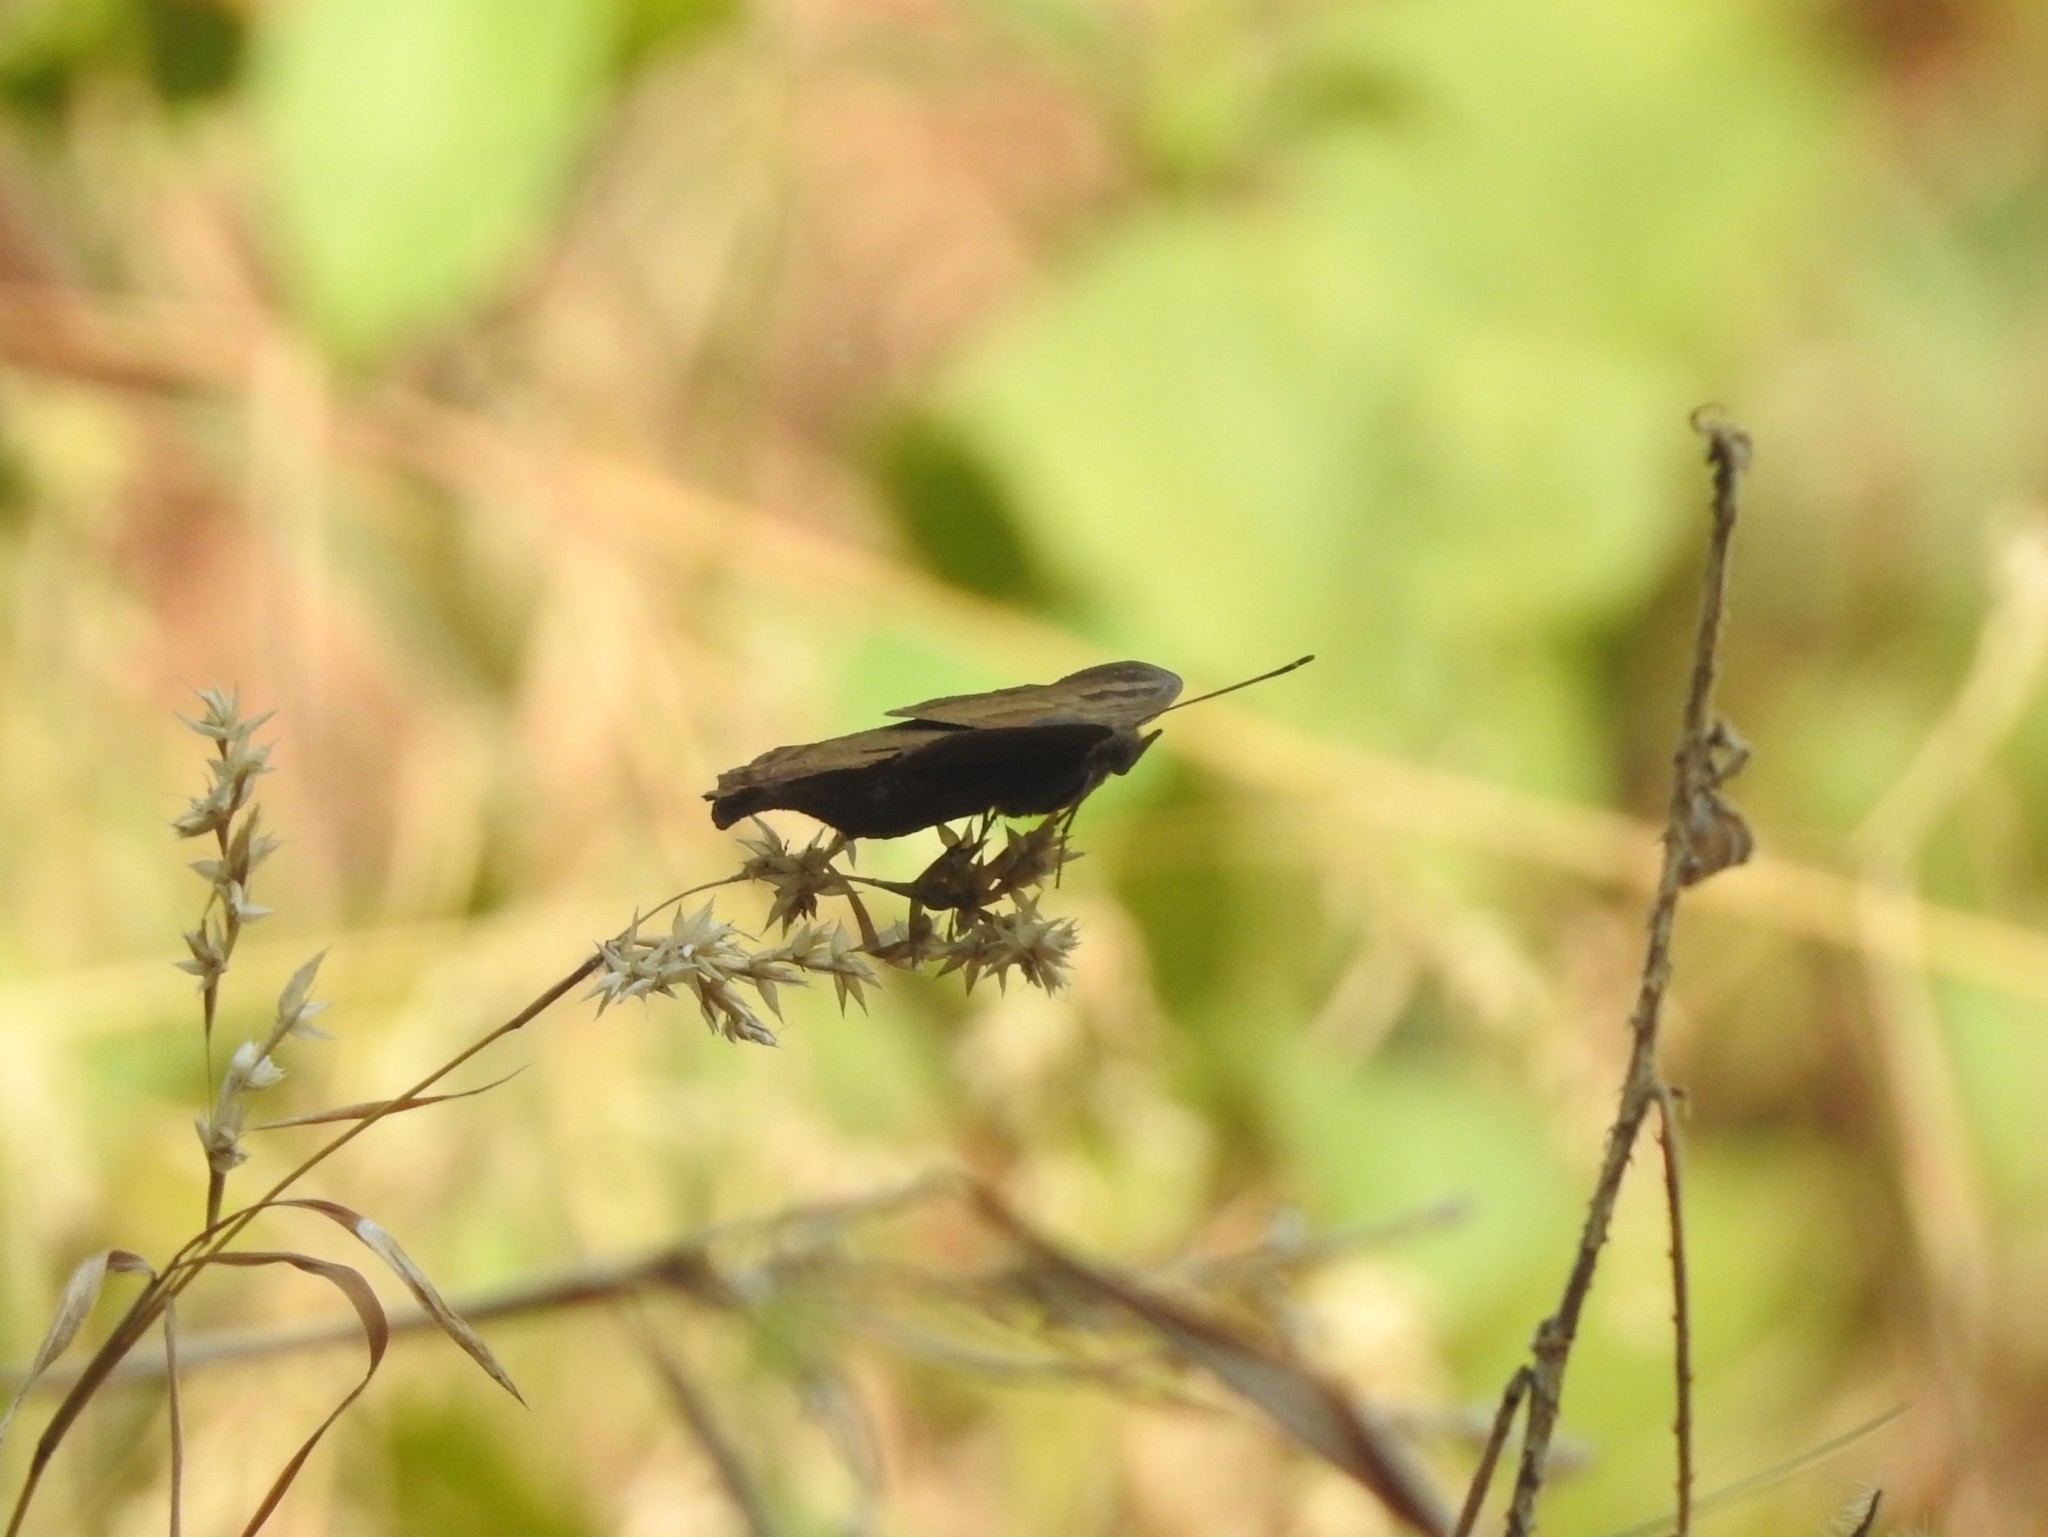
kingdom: Animalia
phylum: Arthropoda
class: Insecta
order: Lepidoptera
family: Nymphalidae
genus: Junonia
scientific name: Junonia iphita
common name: Chocolate pansy
